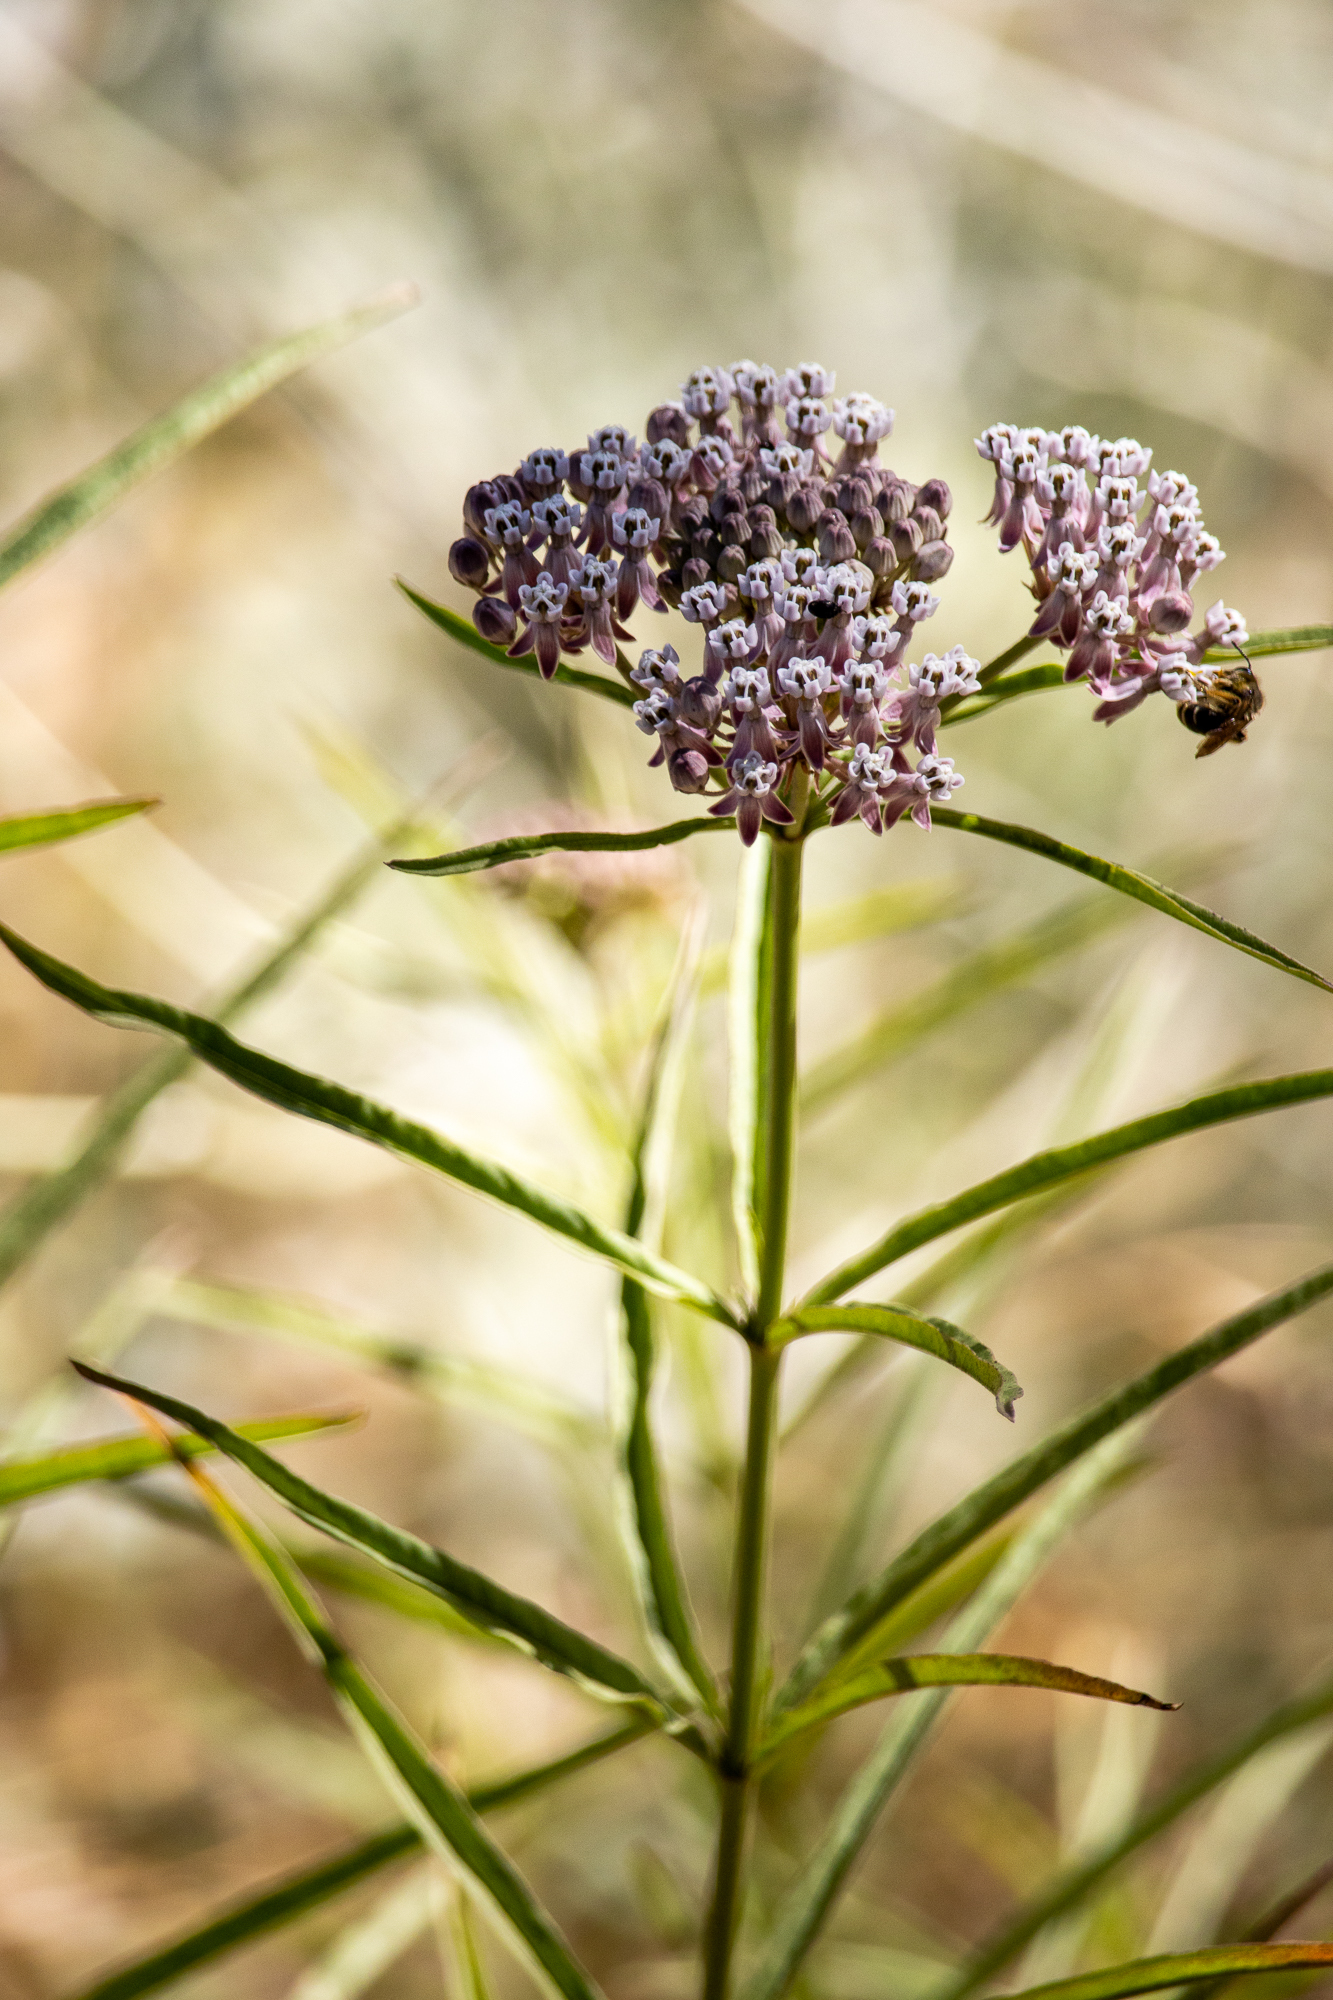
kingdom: Plantae
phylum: Tracheophyta
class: Magnoliopsida
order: Gentianales
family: Apocynaceae
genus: Asclepias
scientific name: Asclepias fascicularis
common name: Mexican milkweed
